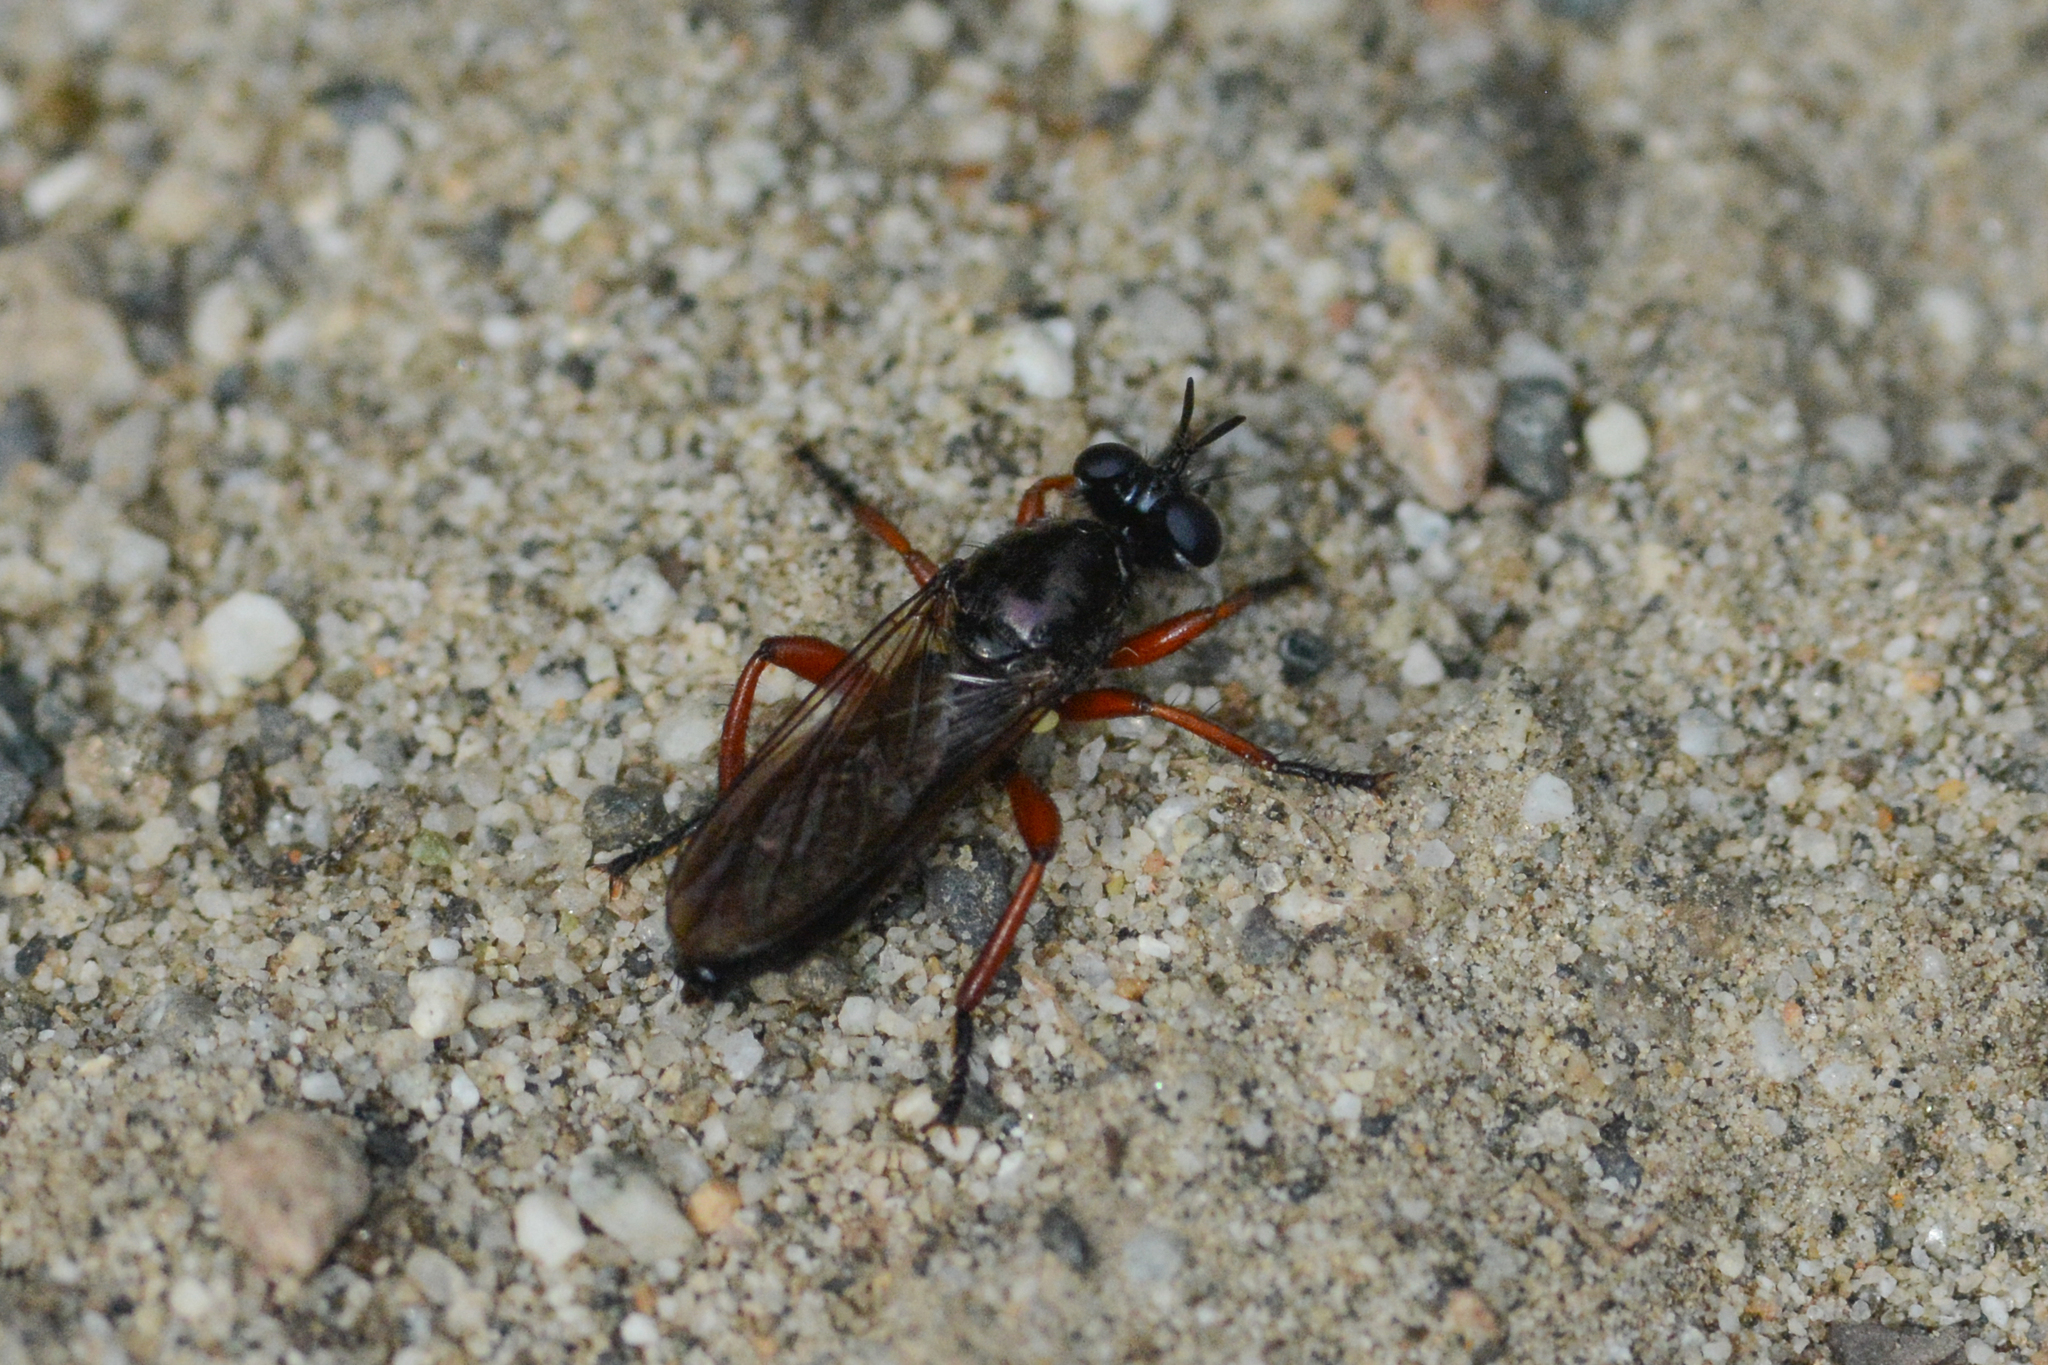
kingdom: Animalia
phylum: Arthropoda
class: Insecta
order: Diptera
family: Asilidae
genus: Laphria
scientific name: Laphria sadales
